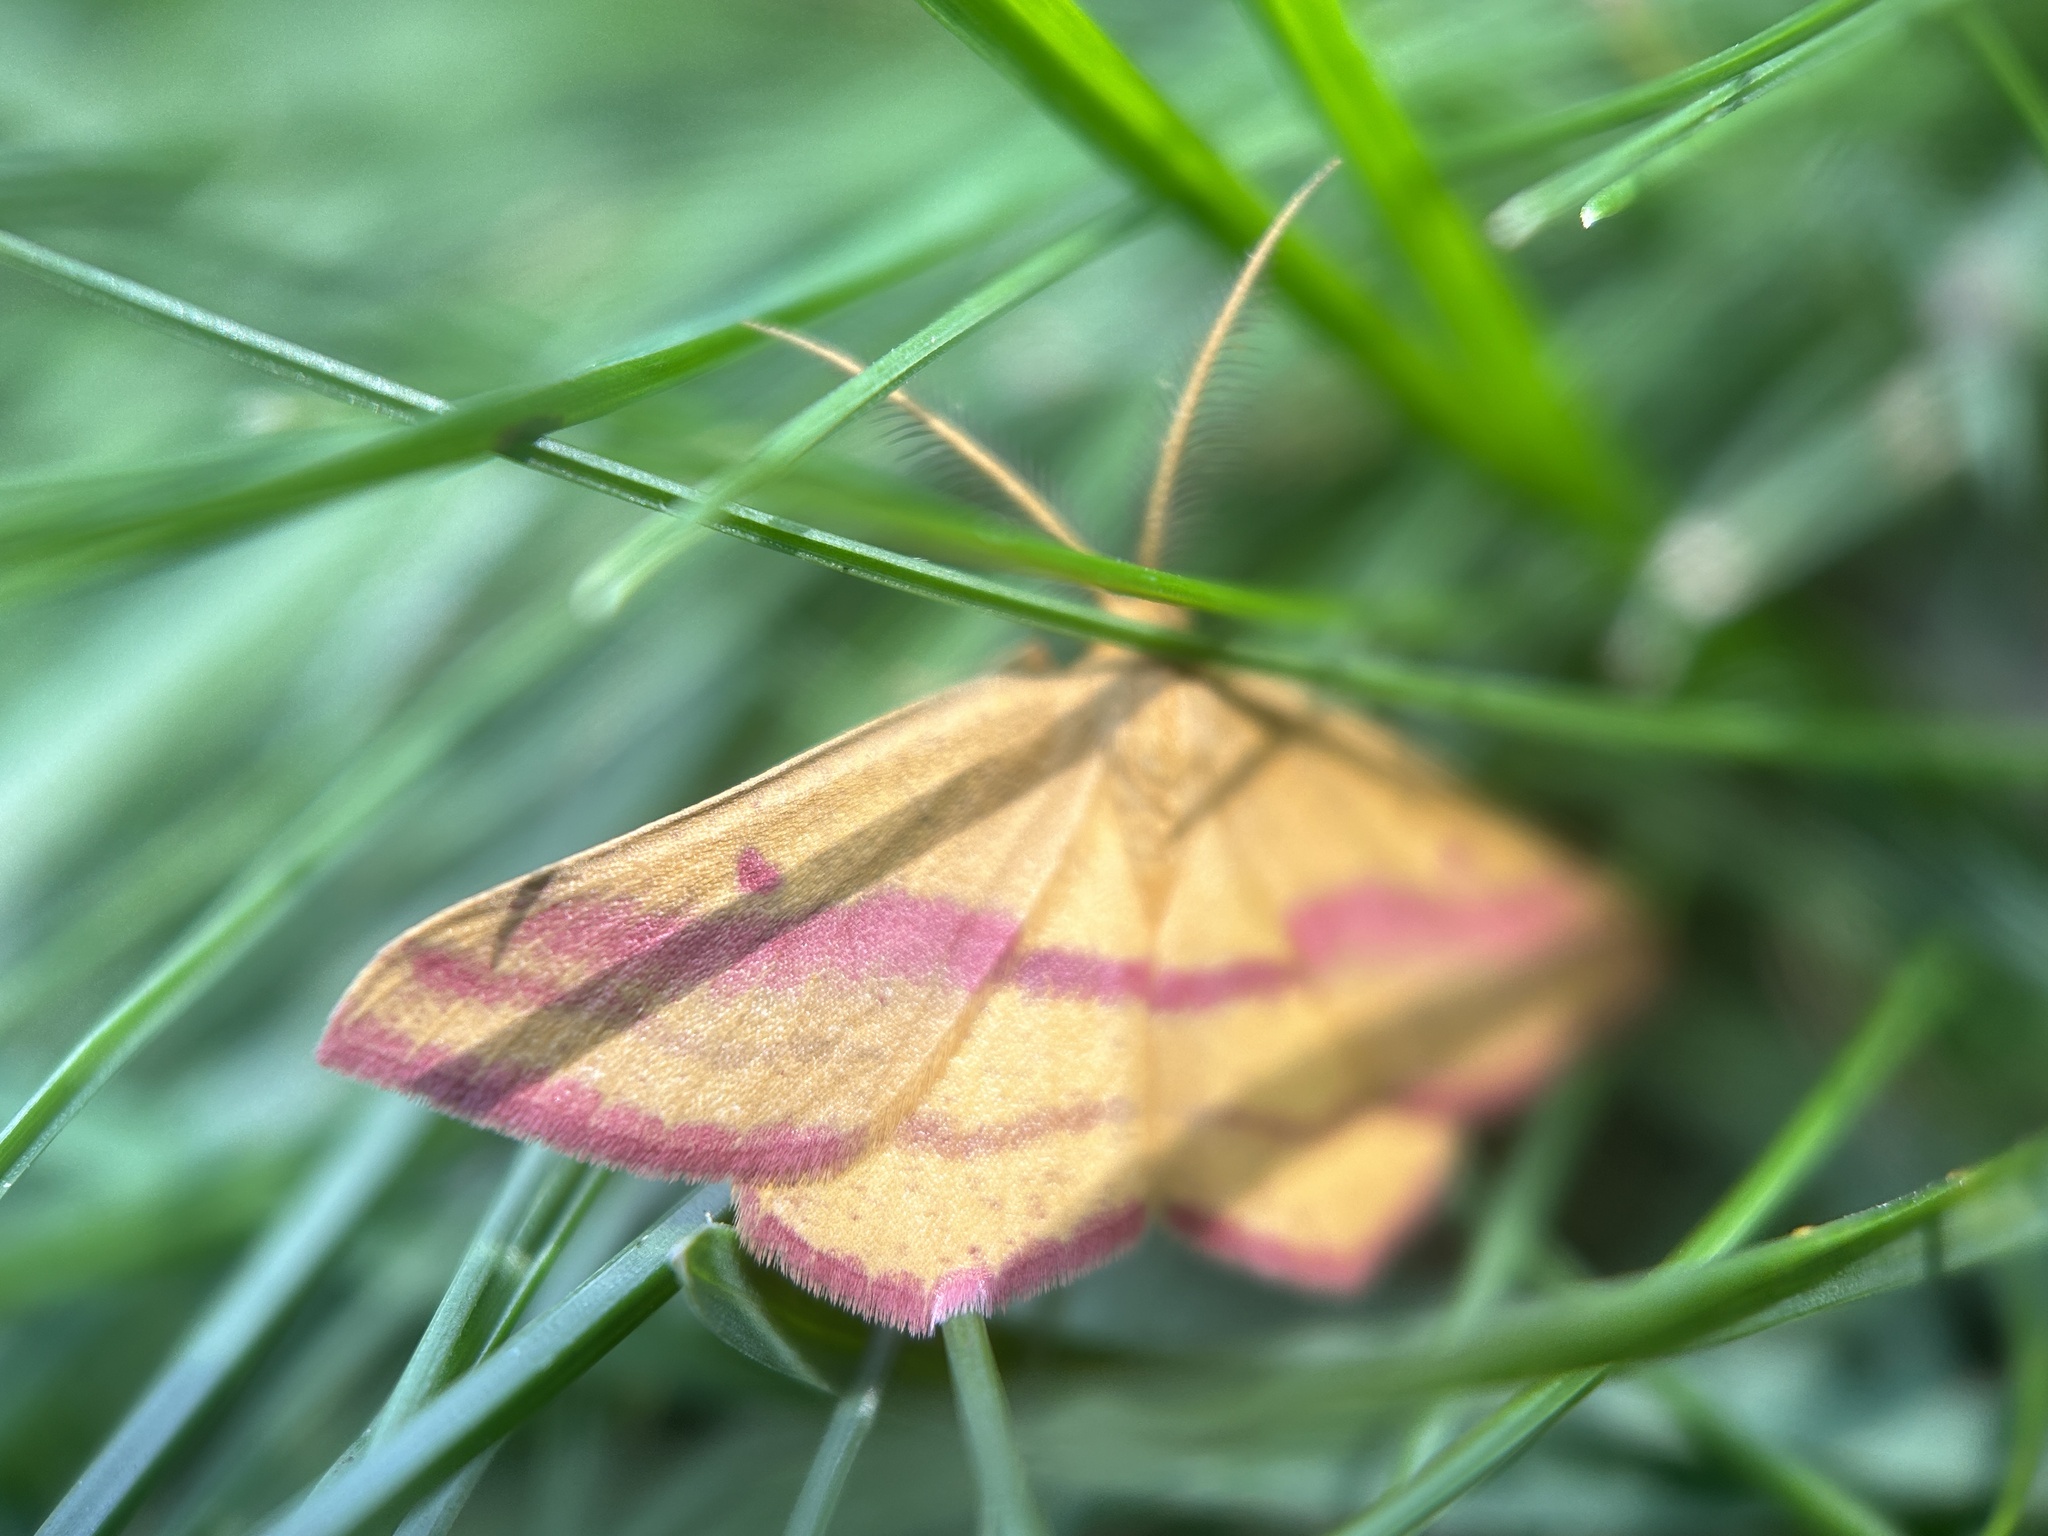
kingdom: Animalia
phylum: Arthropoda
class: Insecta
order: Lepidoptera
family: Geometridae
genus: Haematopis
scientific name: Haematopis grataria
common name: Chickweed geometer
